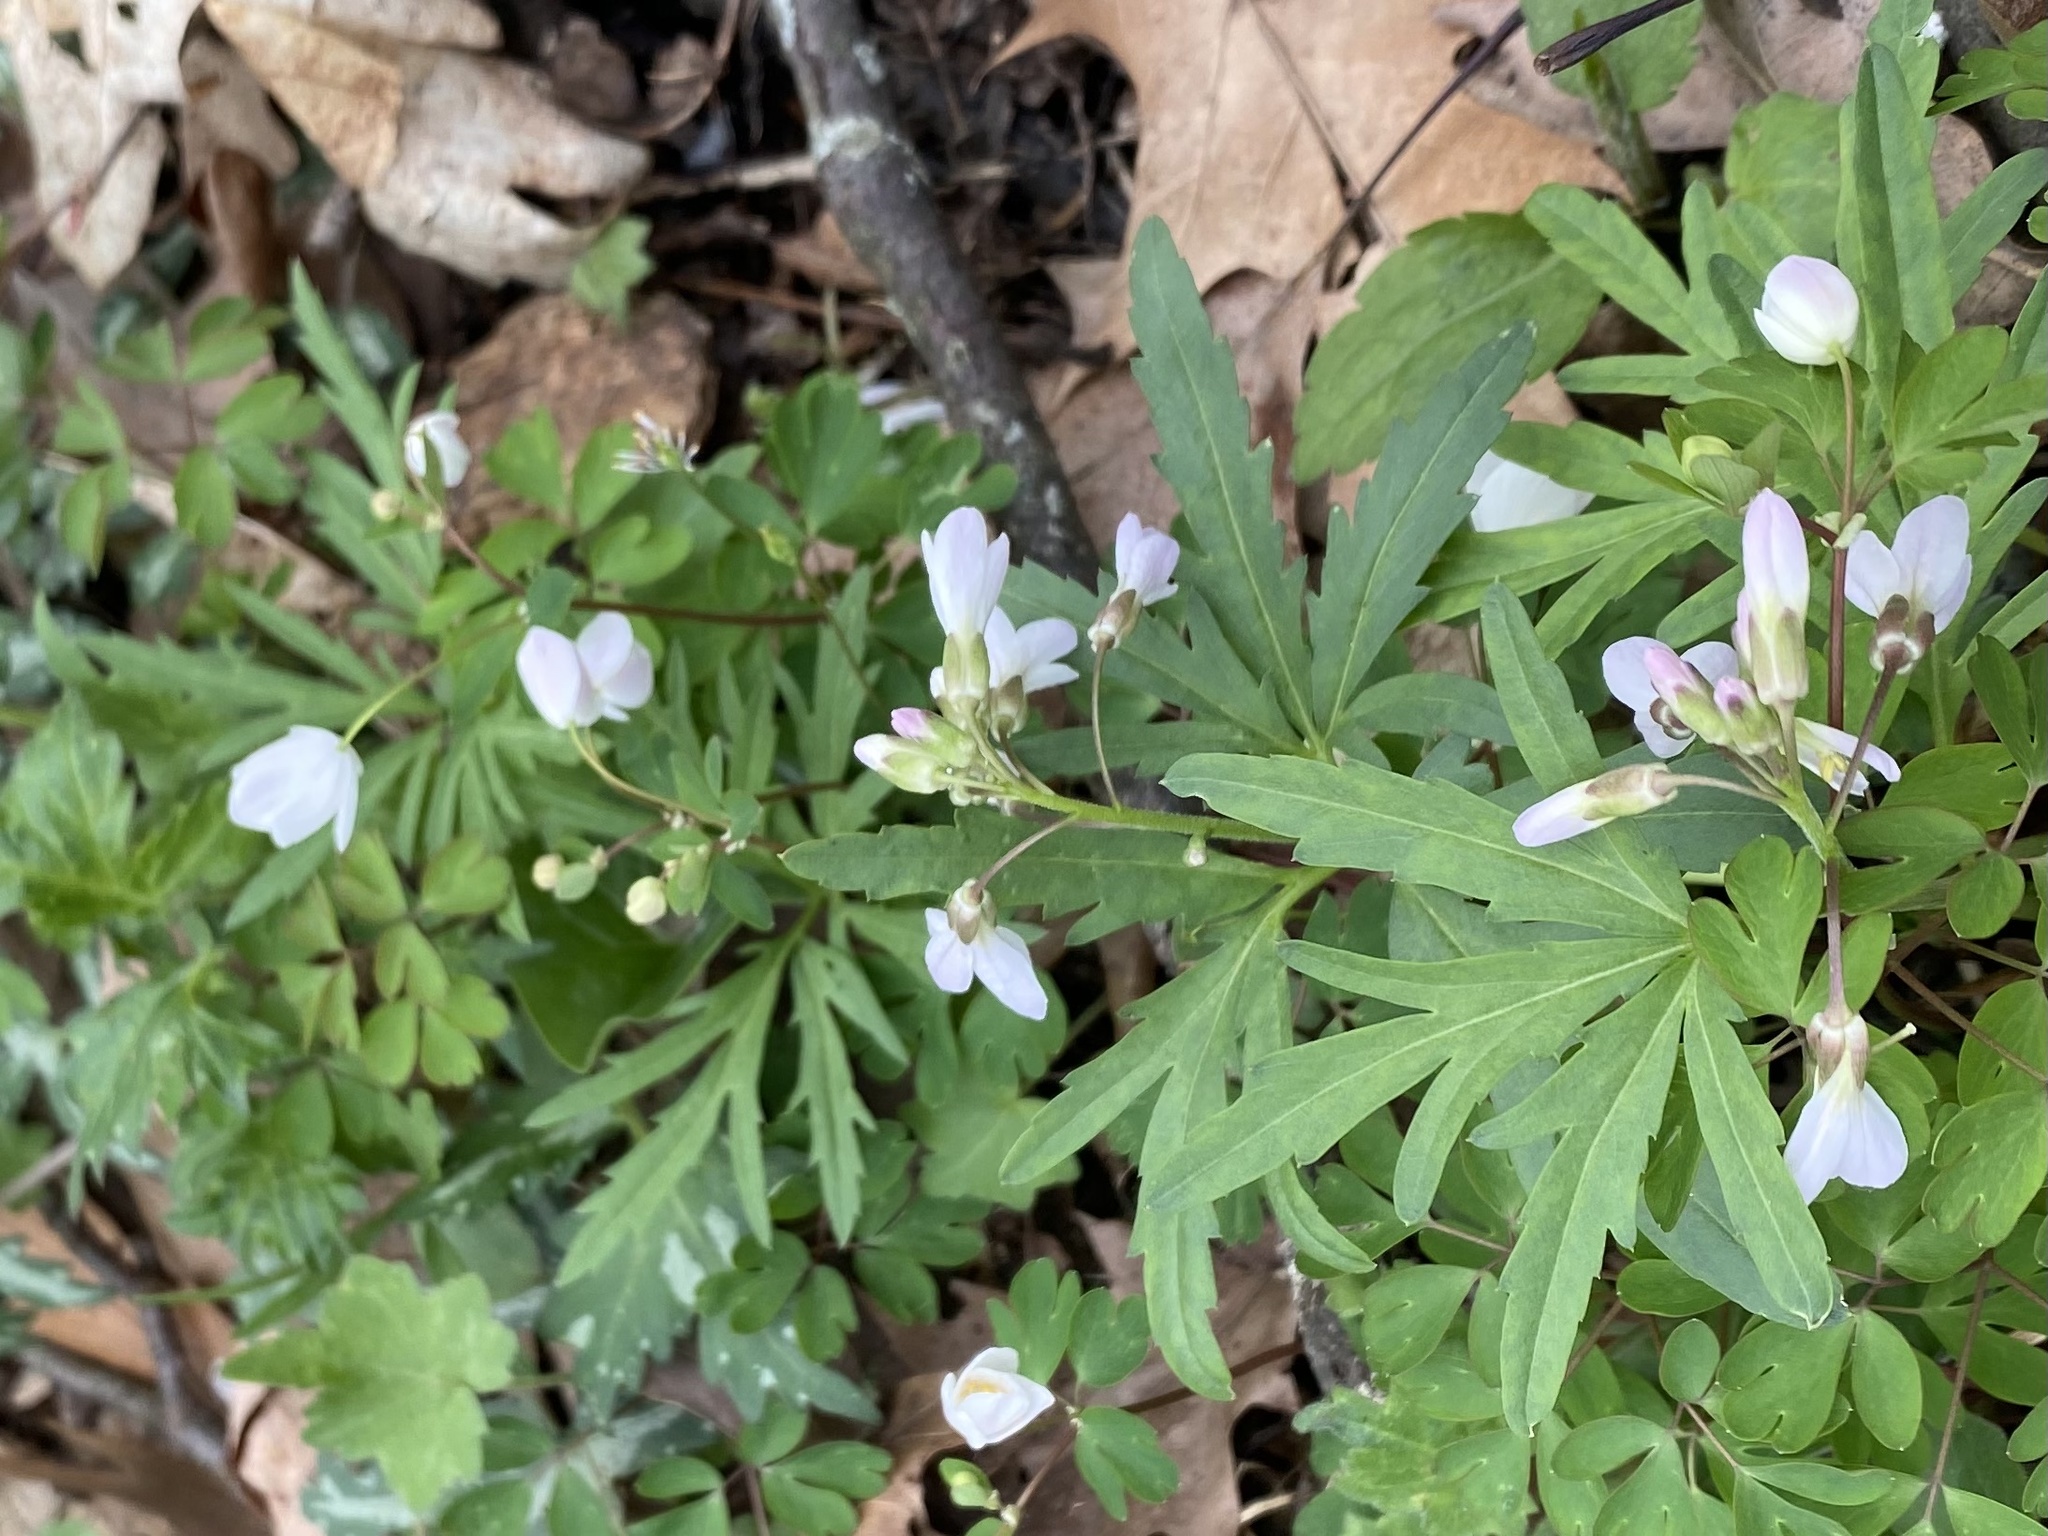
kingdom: Plantae
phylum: Tracheophyta
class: Magnoliopsida
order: Brassicales
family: Brassicaceae
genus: Cardamine
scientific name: Cardamine concatenata
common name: Cut-leaf toothcup
